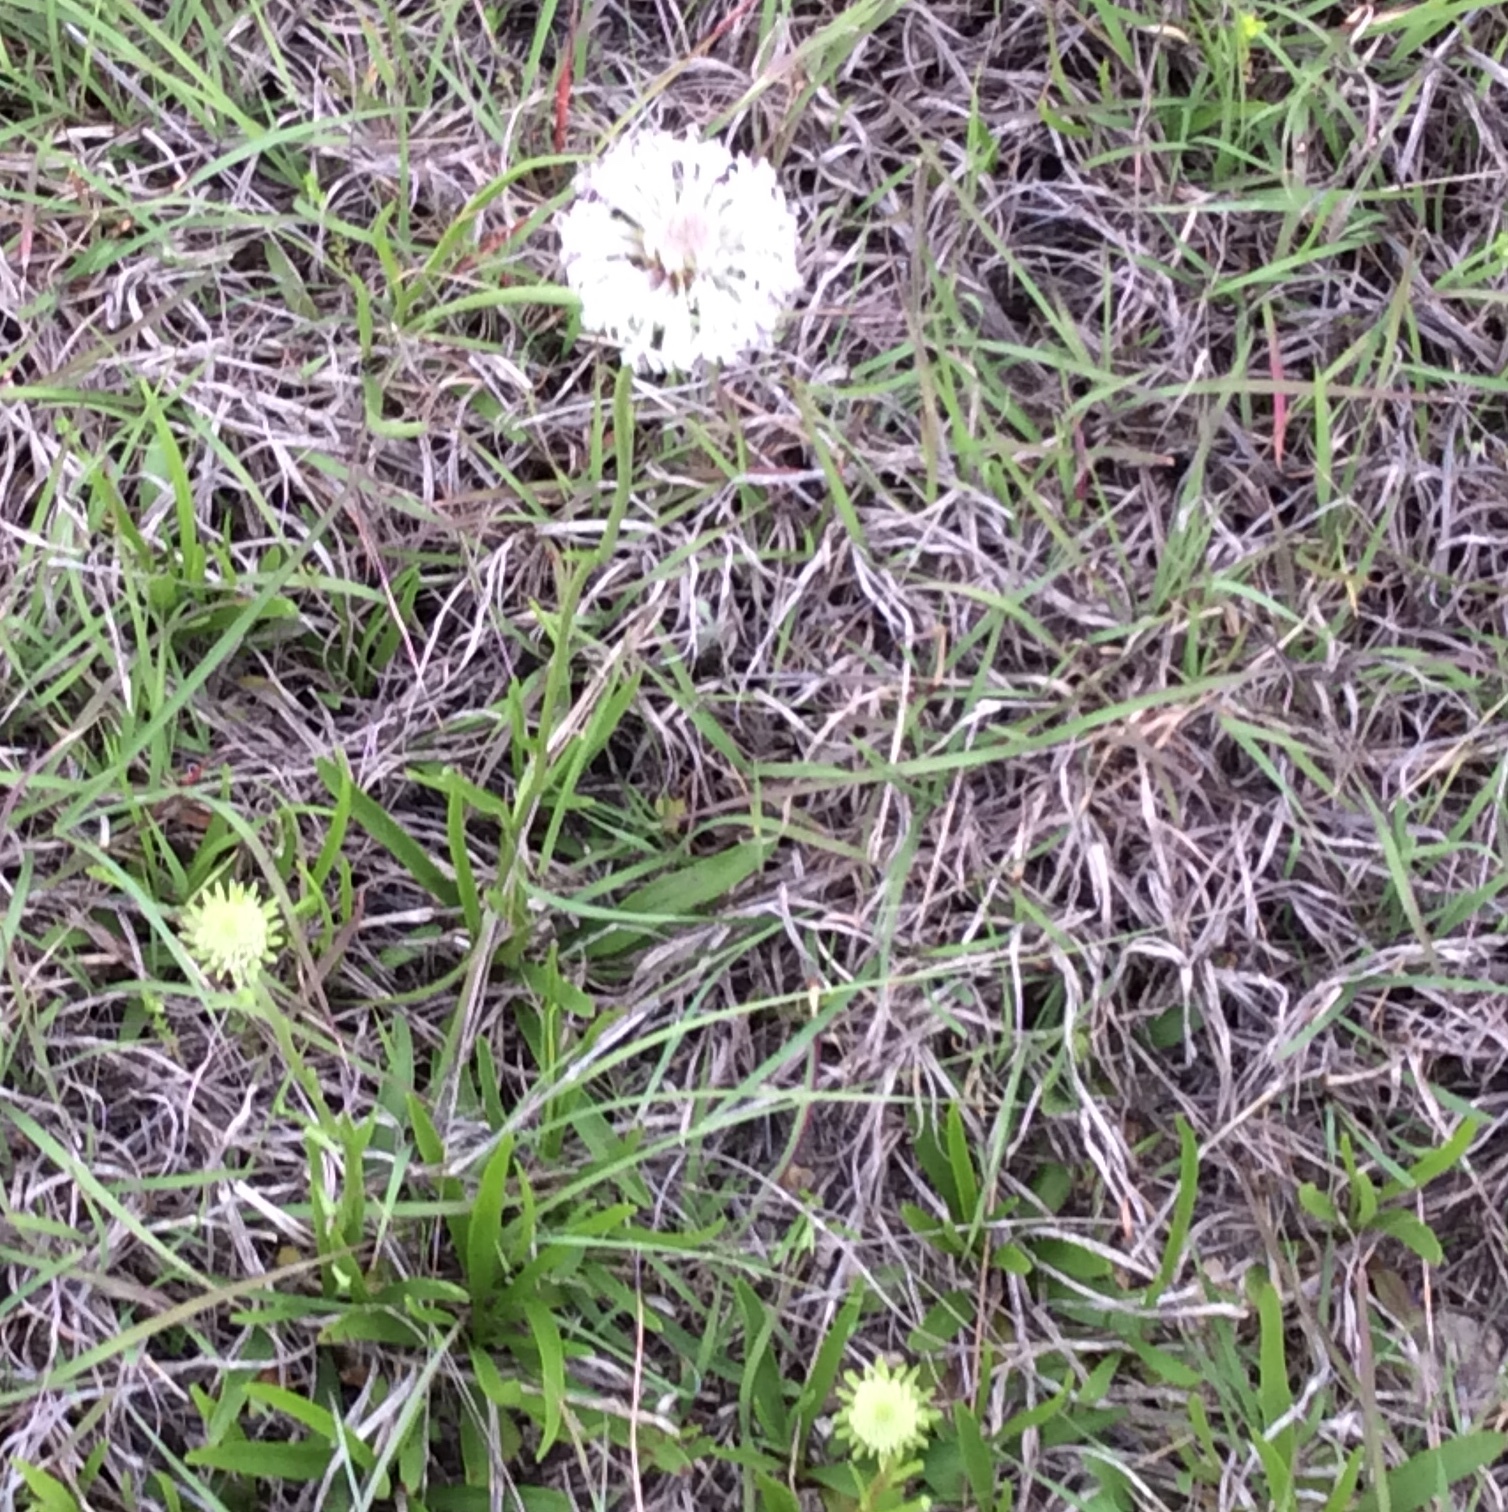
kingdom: Plantae
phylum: Tracheophyta
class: Magnoliopsida
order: Asterales
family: Asteraceae
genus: Marshallia
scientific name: Marshallia caespitosa
